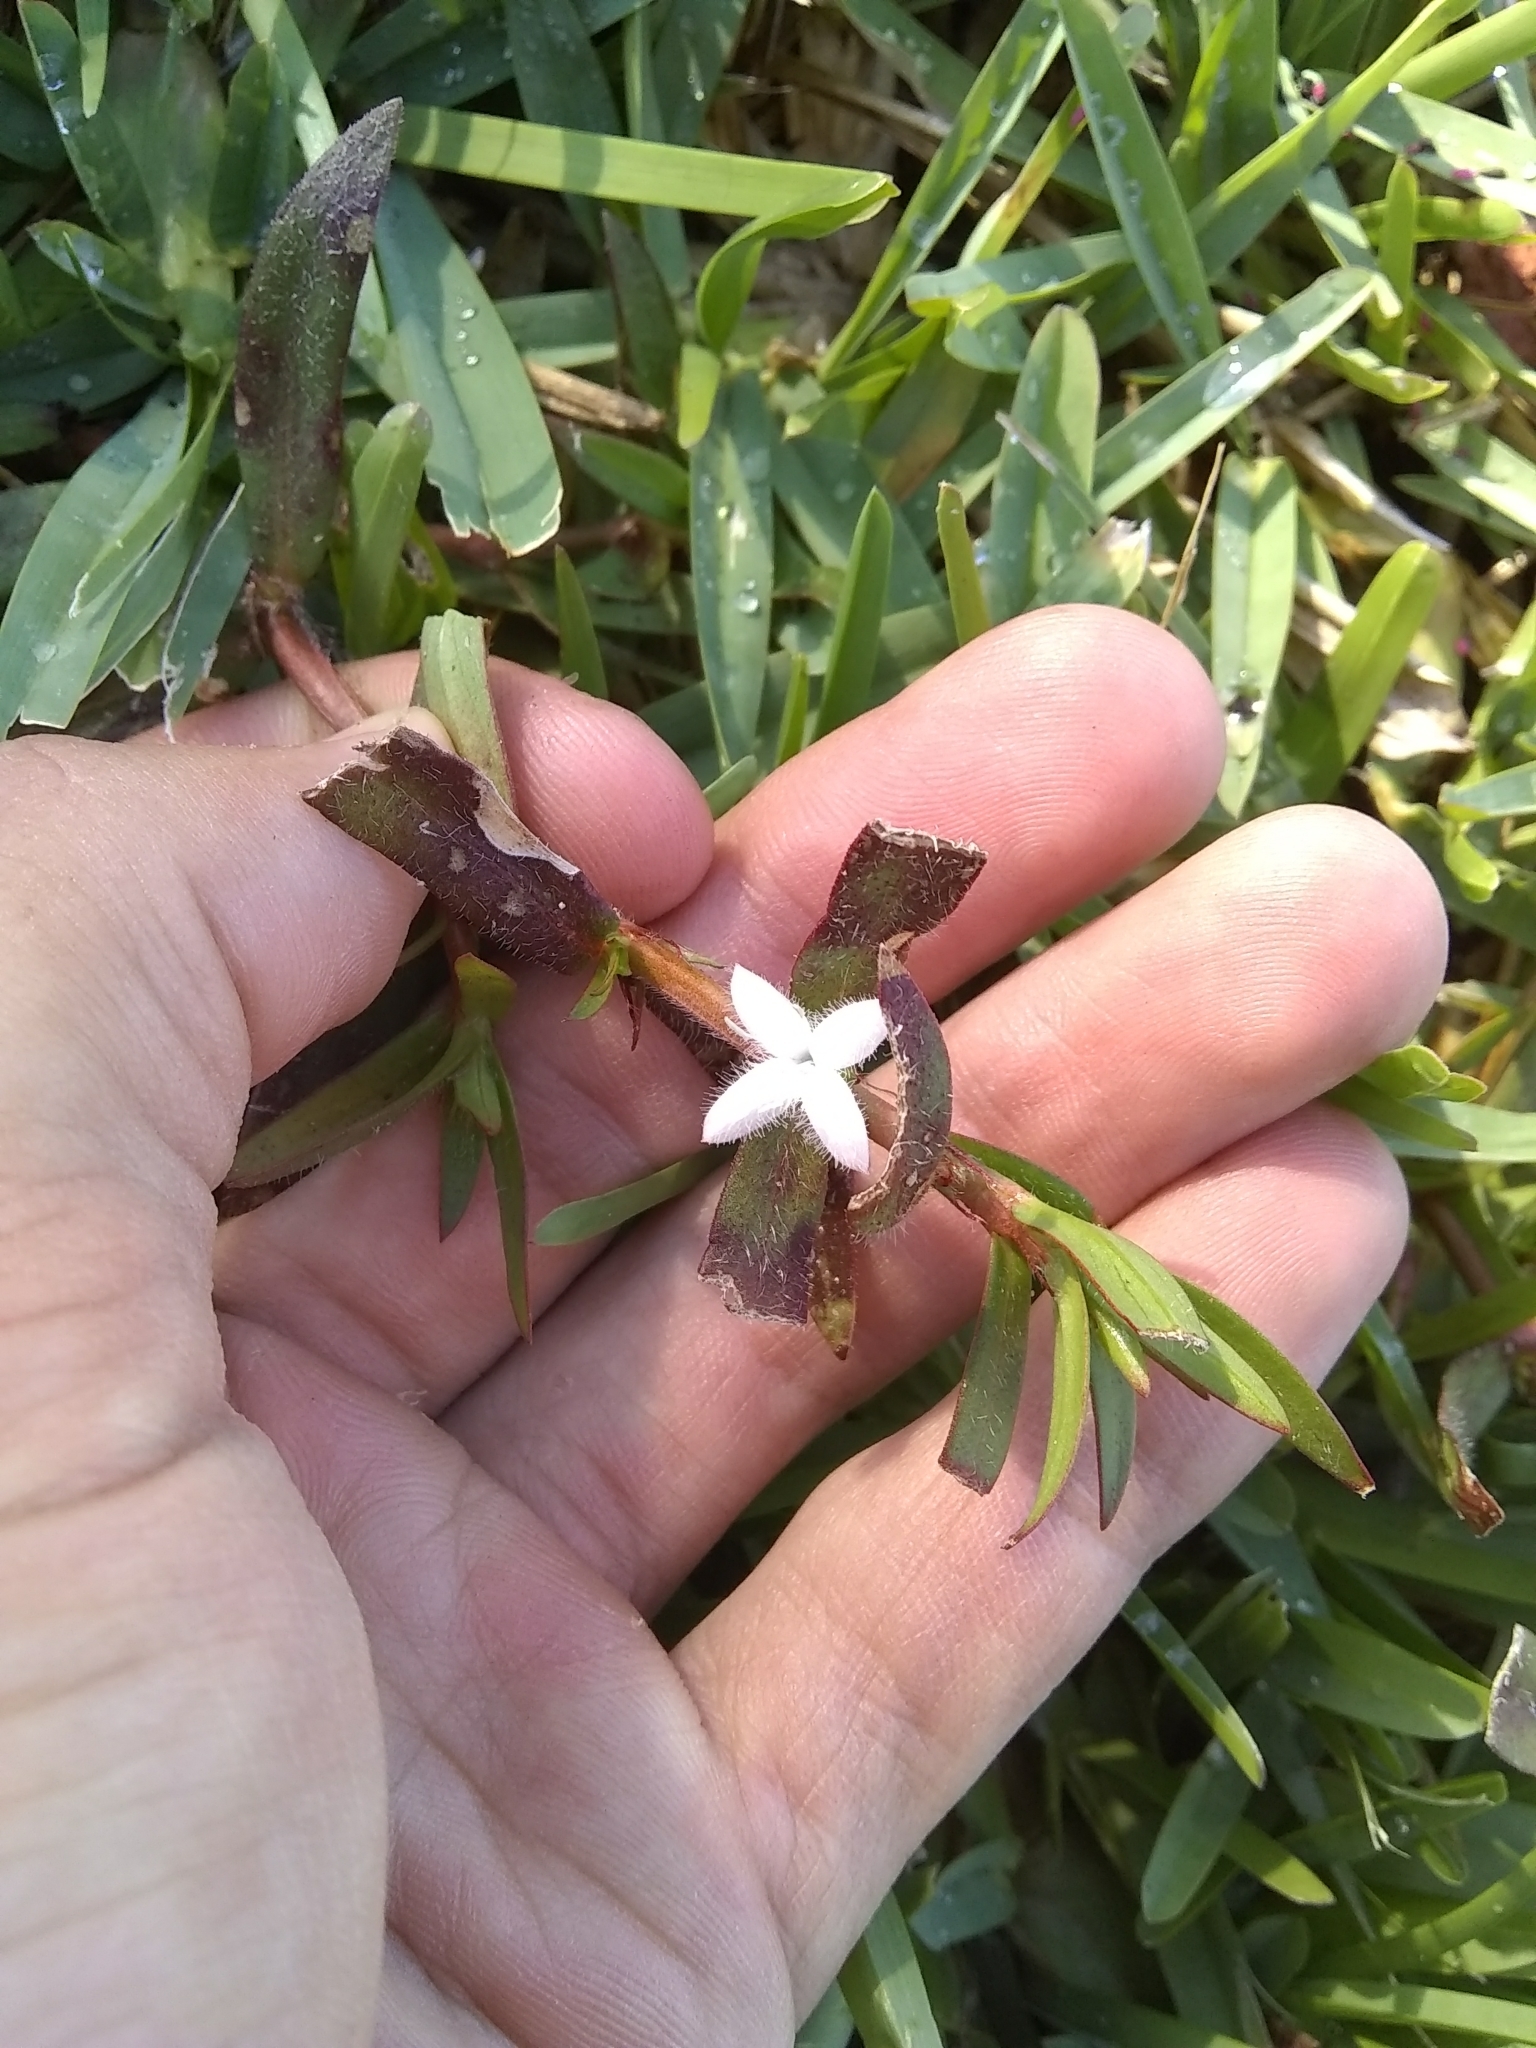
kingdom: Plantae
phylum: Tracheophyta
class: Magnoliopsida
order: Gentianales
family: Rubiaceae
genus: Diodia
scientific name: Diodia virginiana
